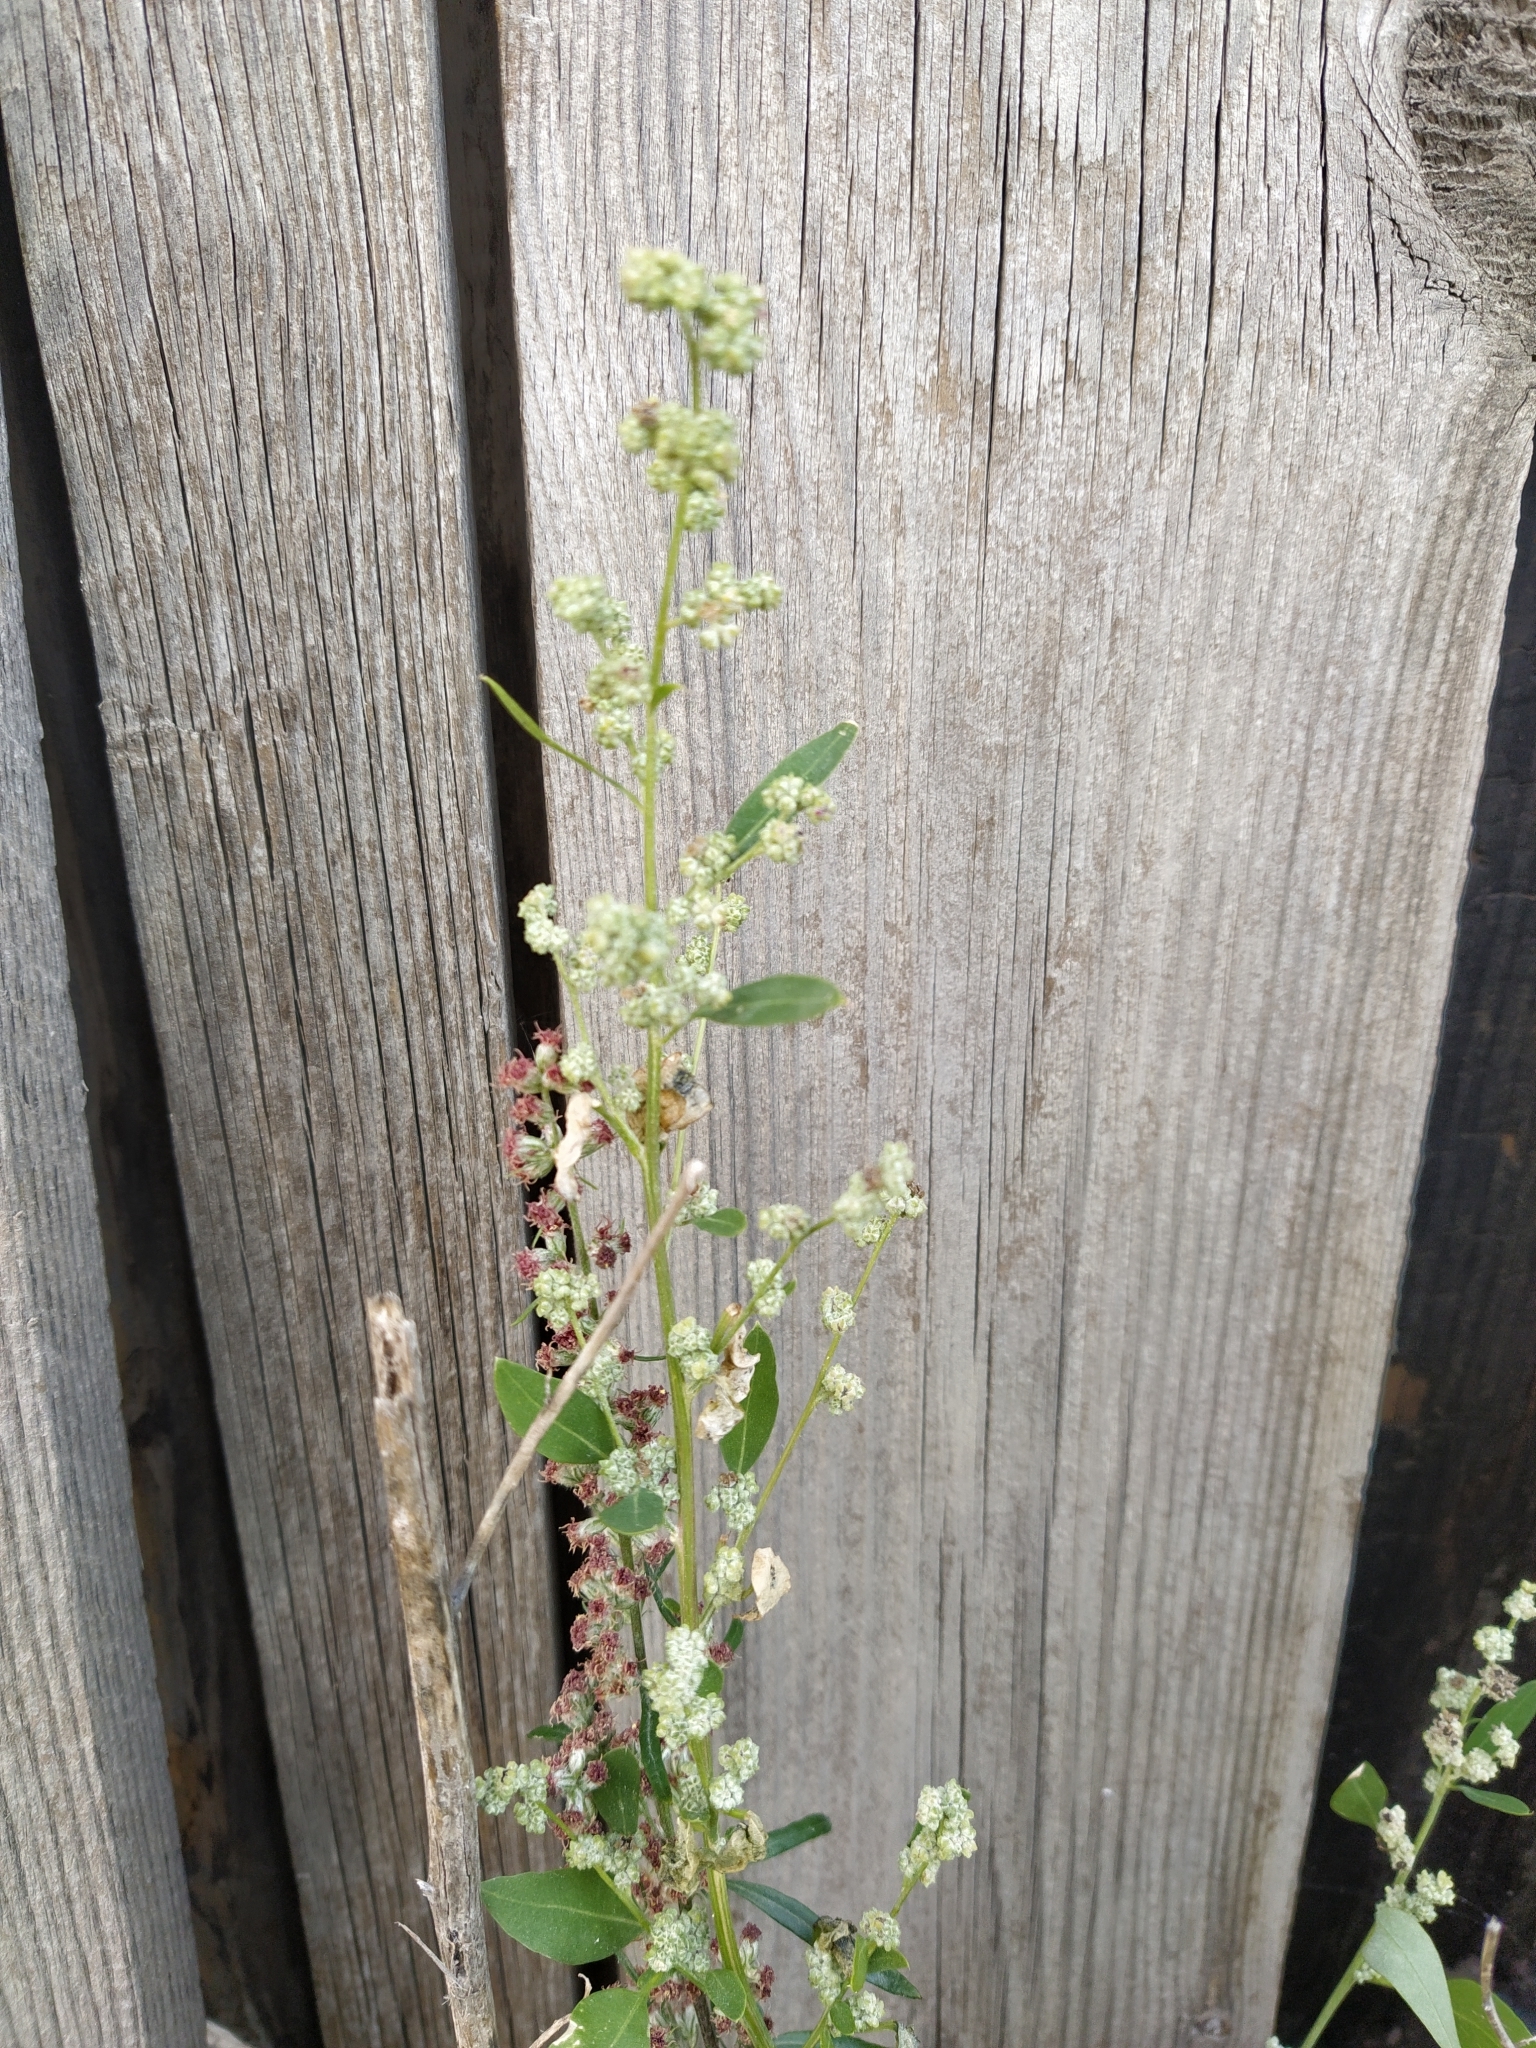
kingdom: Plantae
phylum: Tracheophyta
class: Magnoliopsida
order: Caryophyllales
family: Amaranthaceae
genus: Chenopodium
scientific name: Chenopodium album
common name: Fat-hen
